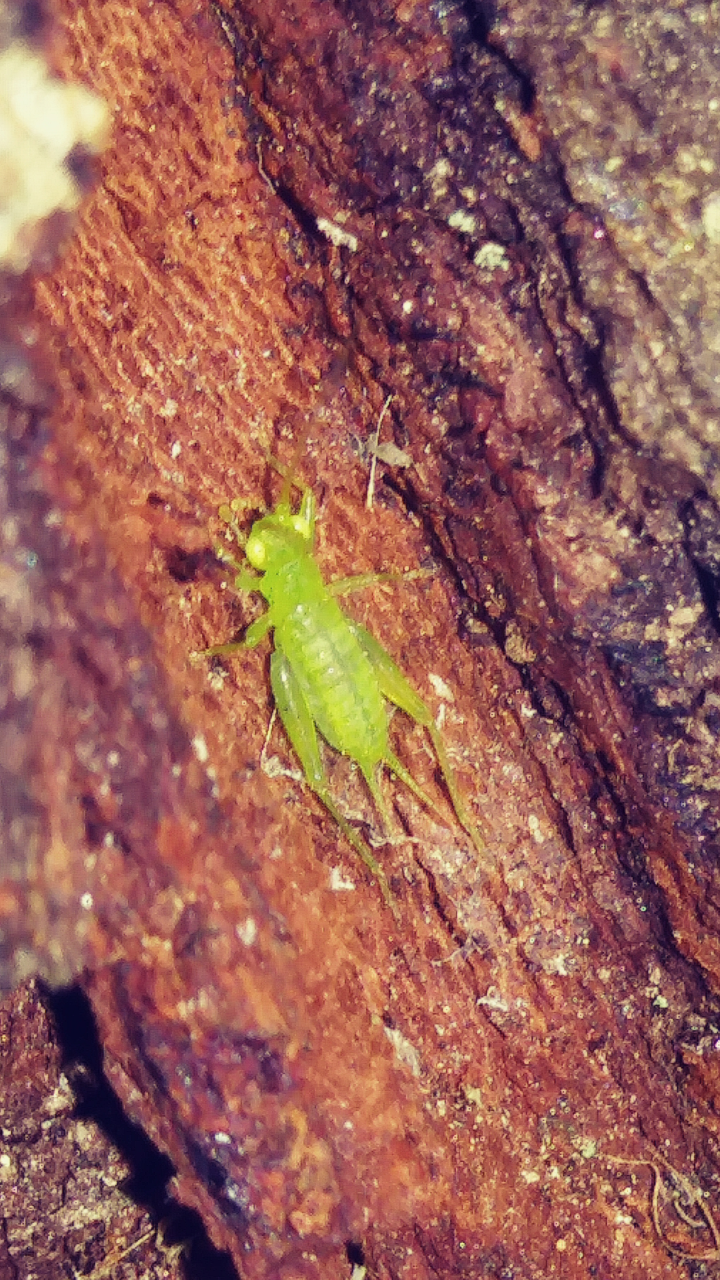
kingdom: Animalia
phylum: Arthropoda
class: Insecta
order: Orthoptera
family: Trigonidiidae
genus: Cyrtoxipha
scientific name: Cyrtoxipha columbiana
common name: Columbian trig
